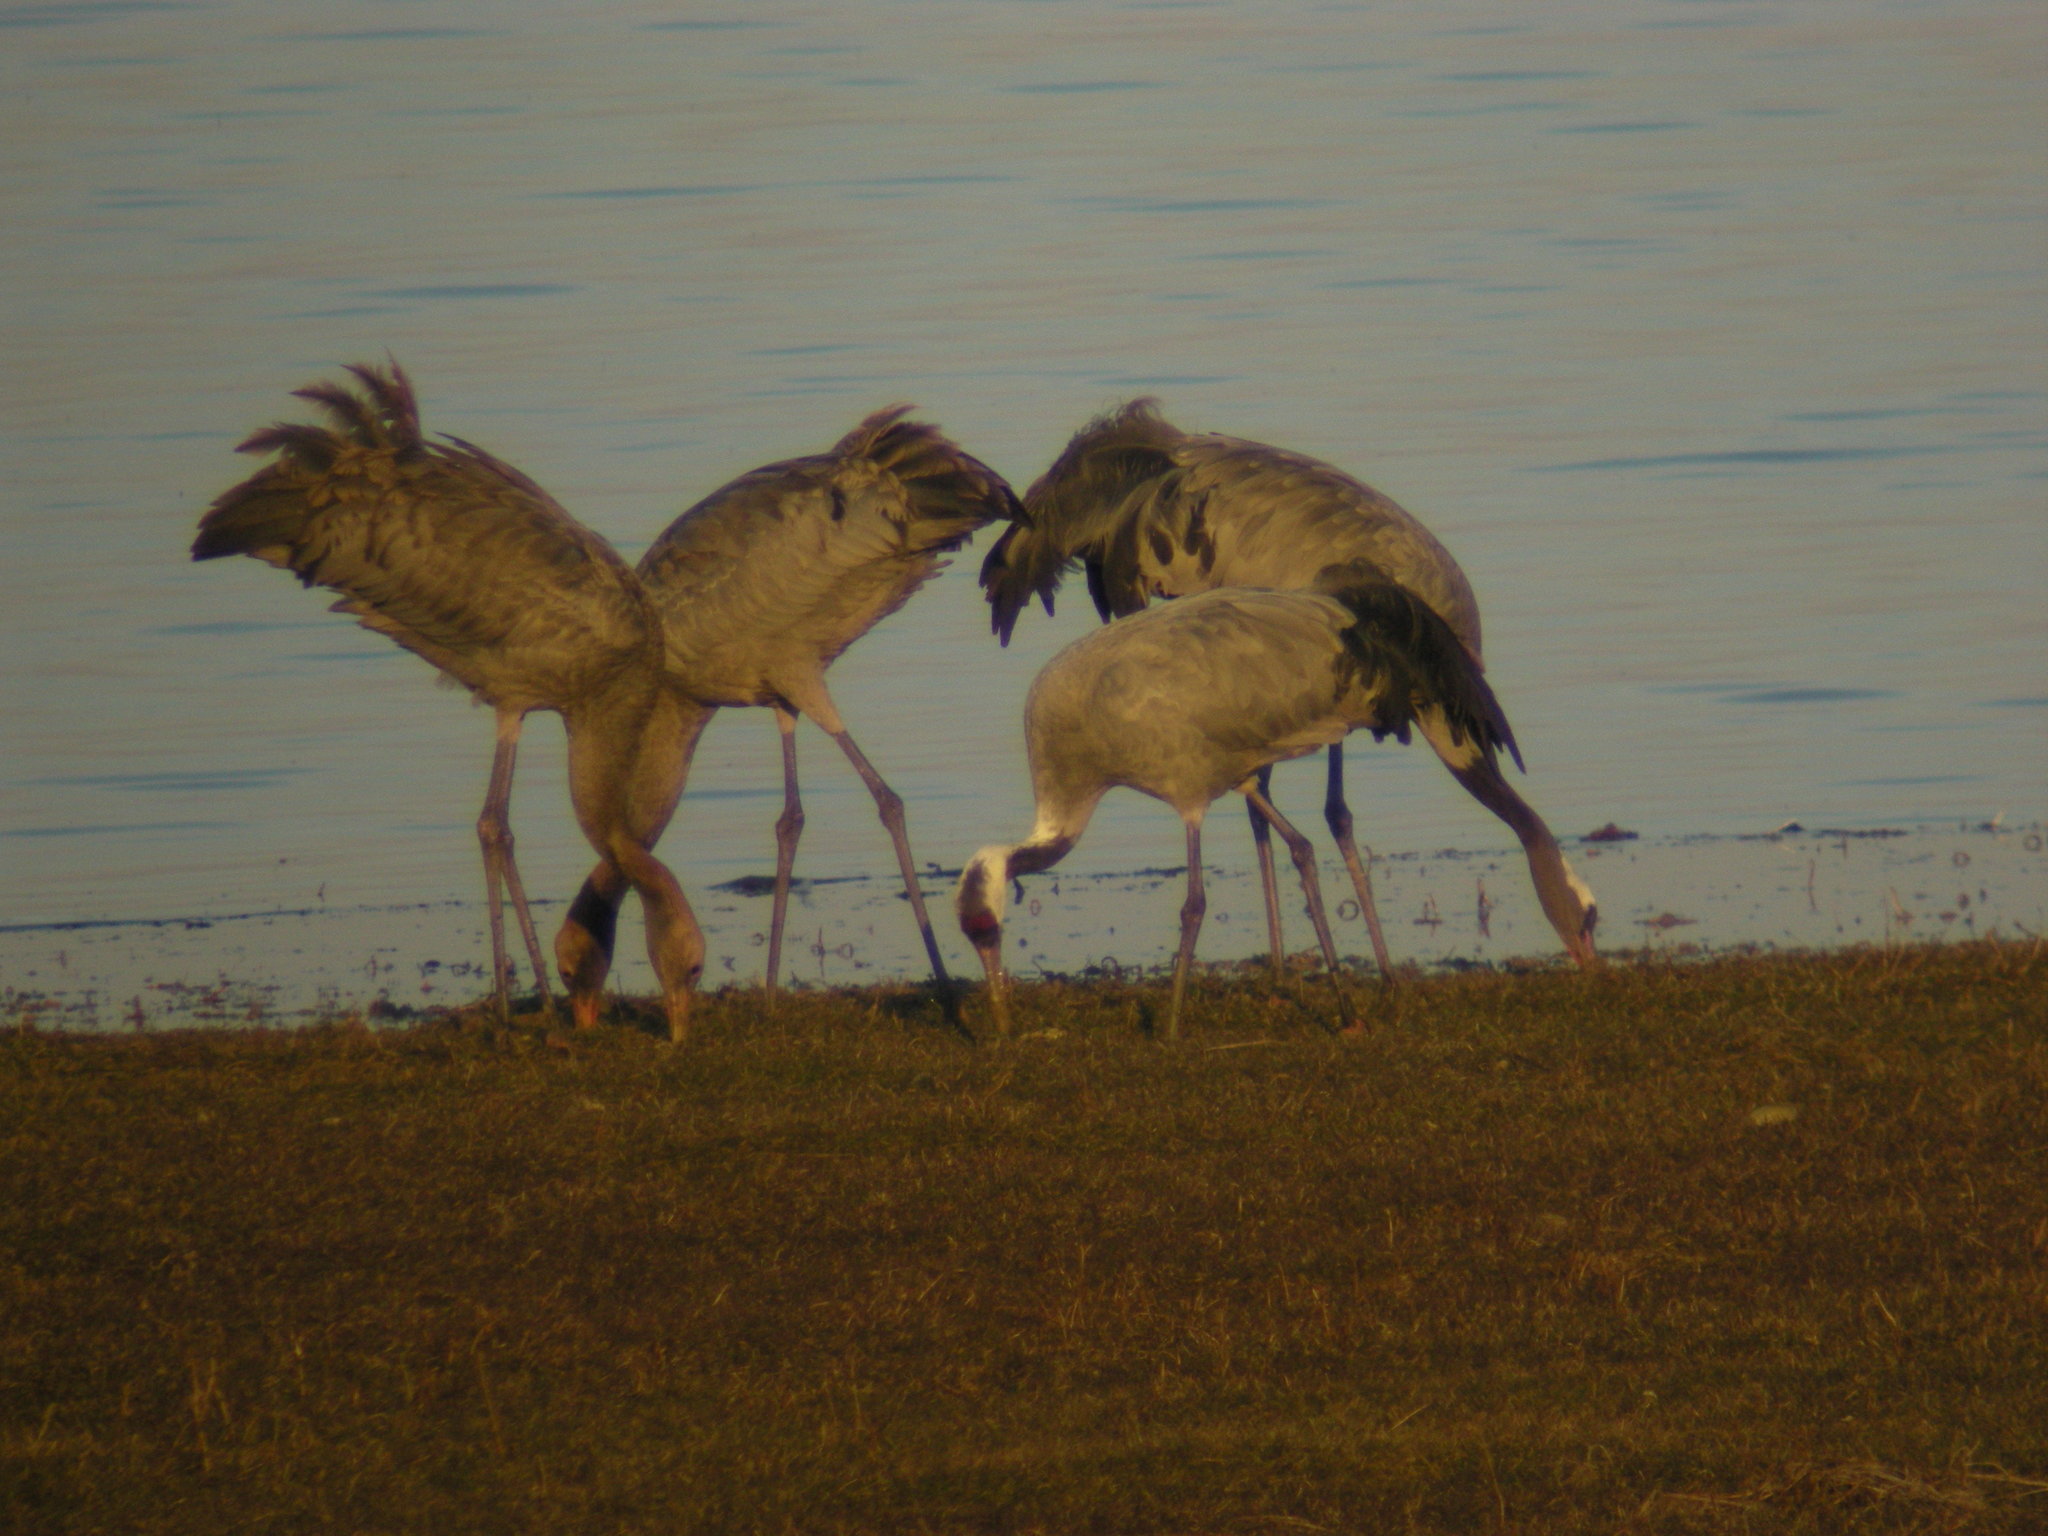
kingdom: Animalia
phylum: Chordata
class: Aves
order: Gruiformes
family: Gruidae
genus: Grus
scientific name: Grus grus
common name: Common crane
